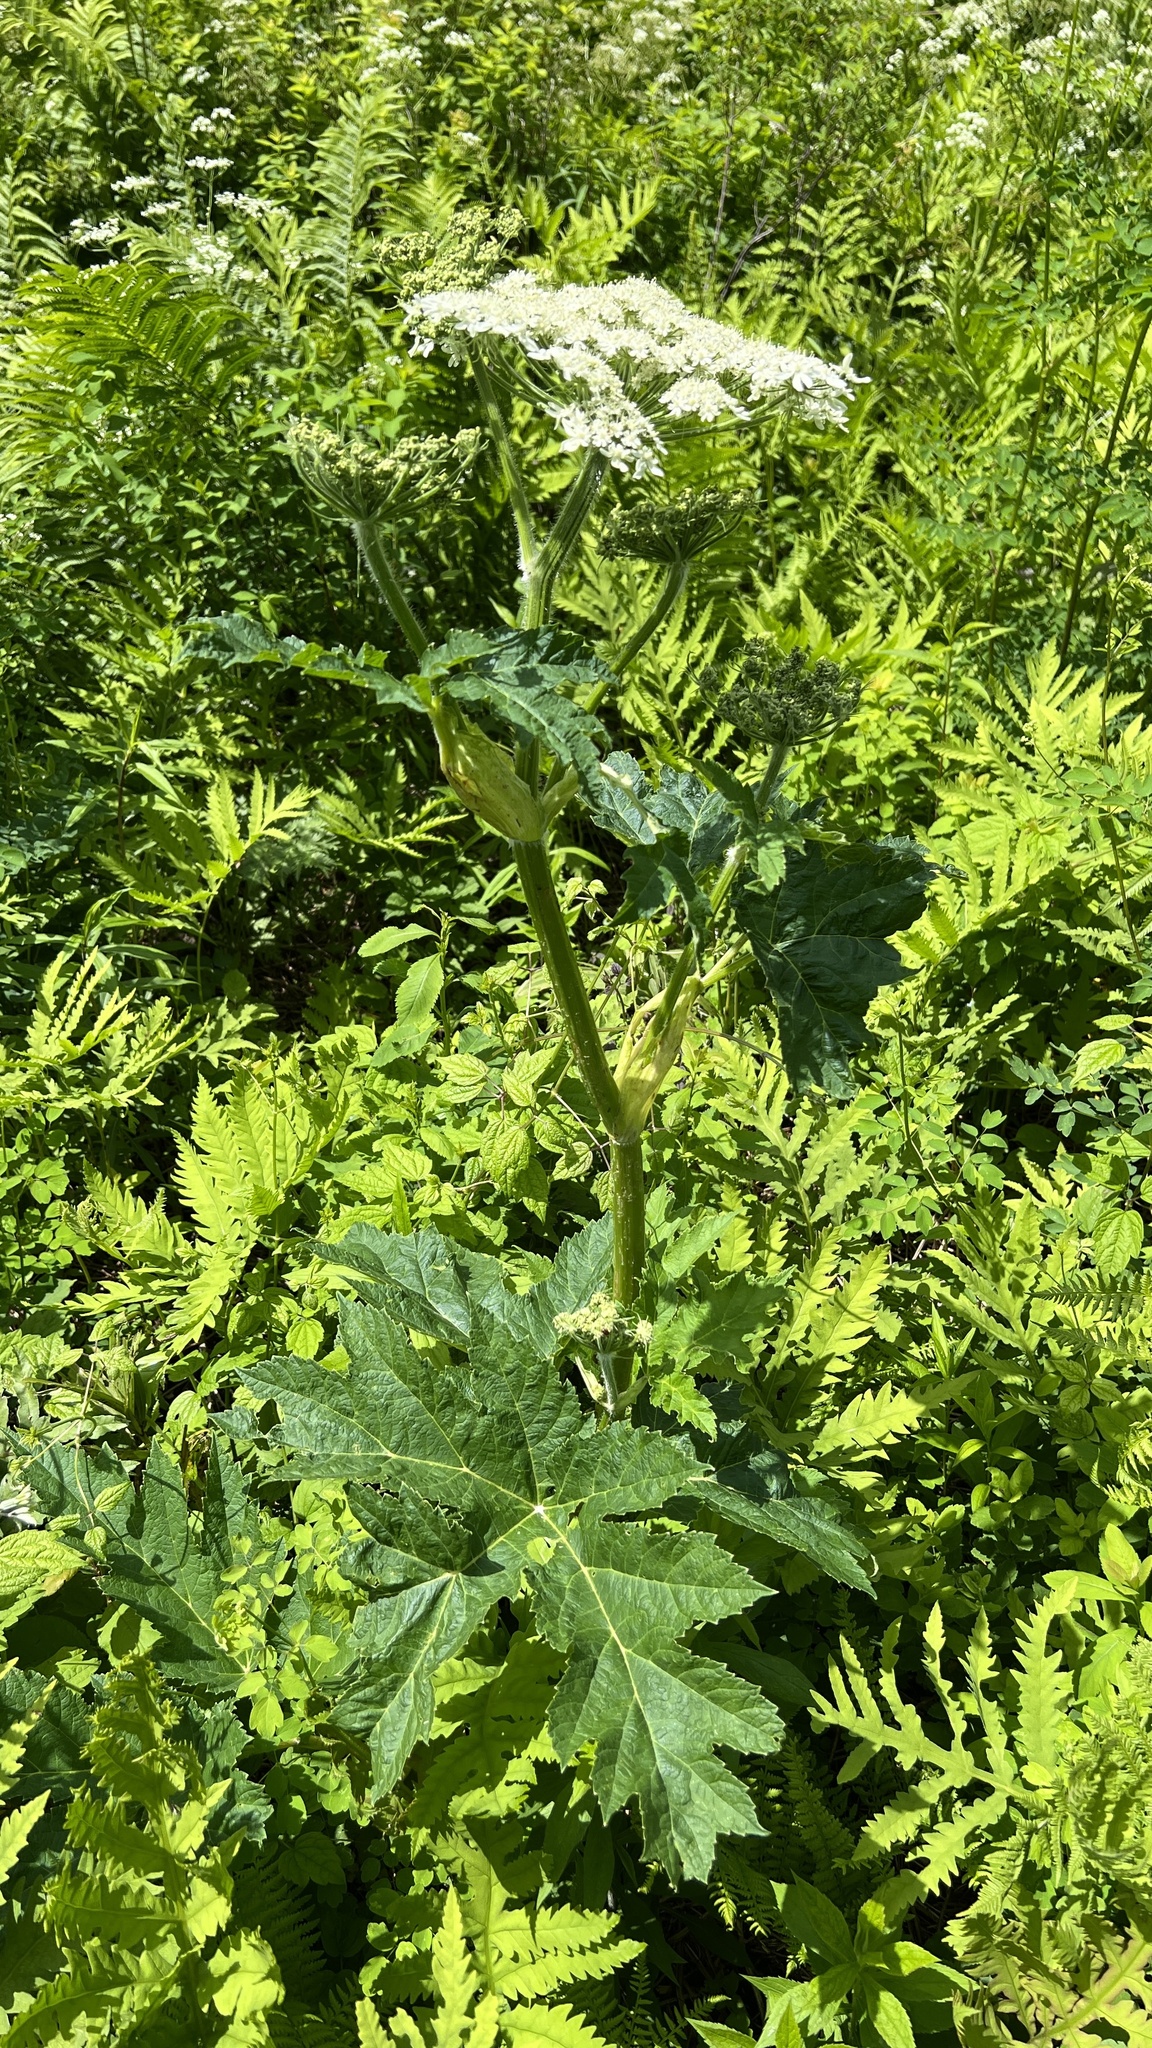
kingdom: Plantae
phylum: Tracheophyta
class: Magnoliopsida
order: Apiales
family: Apiaceae
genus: Heracleum
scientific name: Heracleum maximum
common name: American cow parsnip
